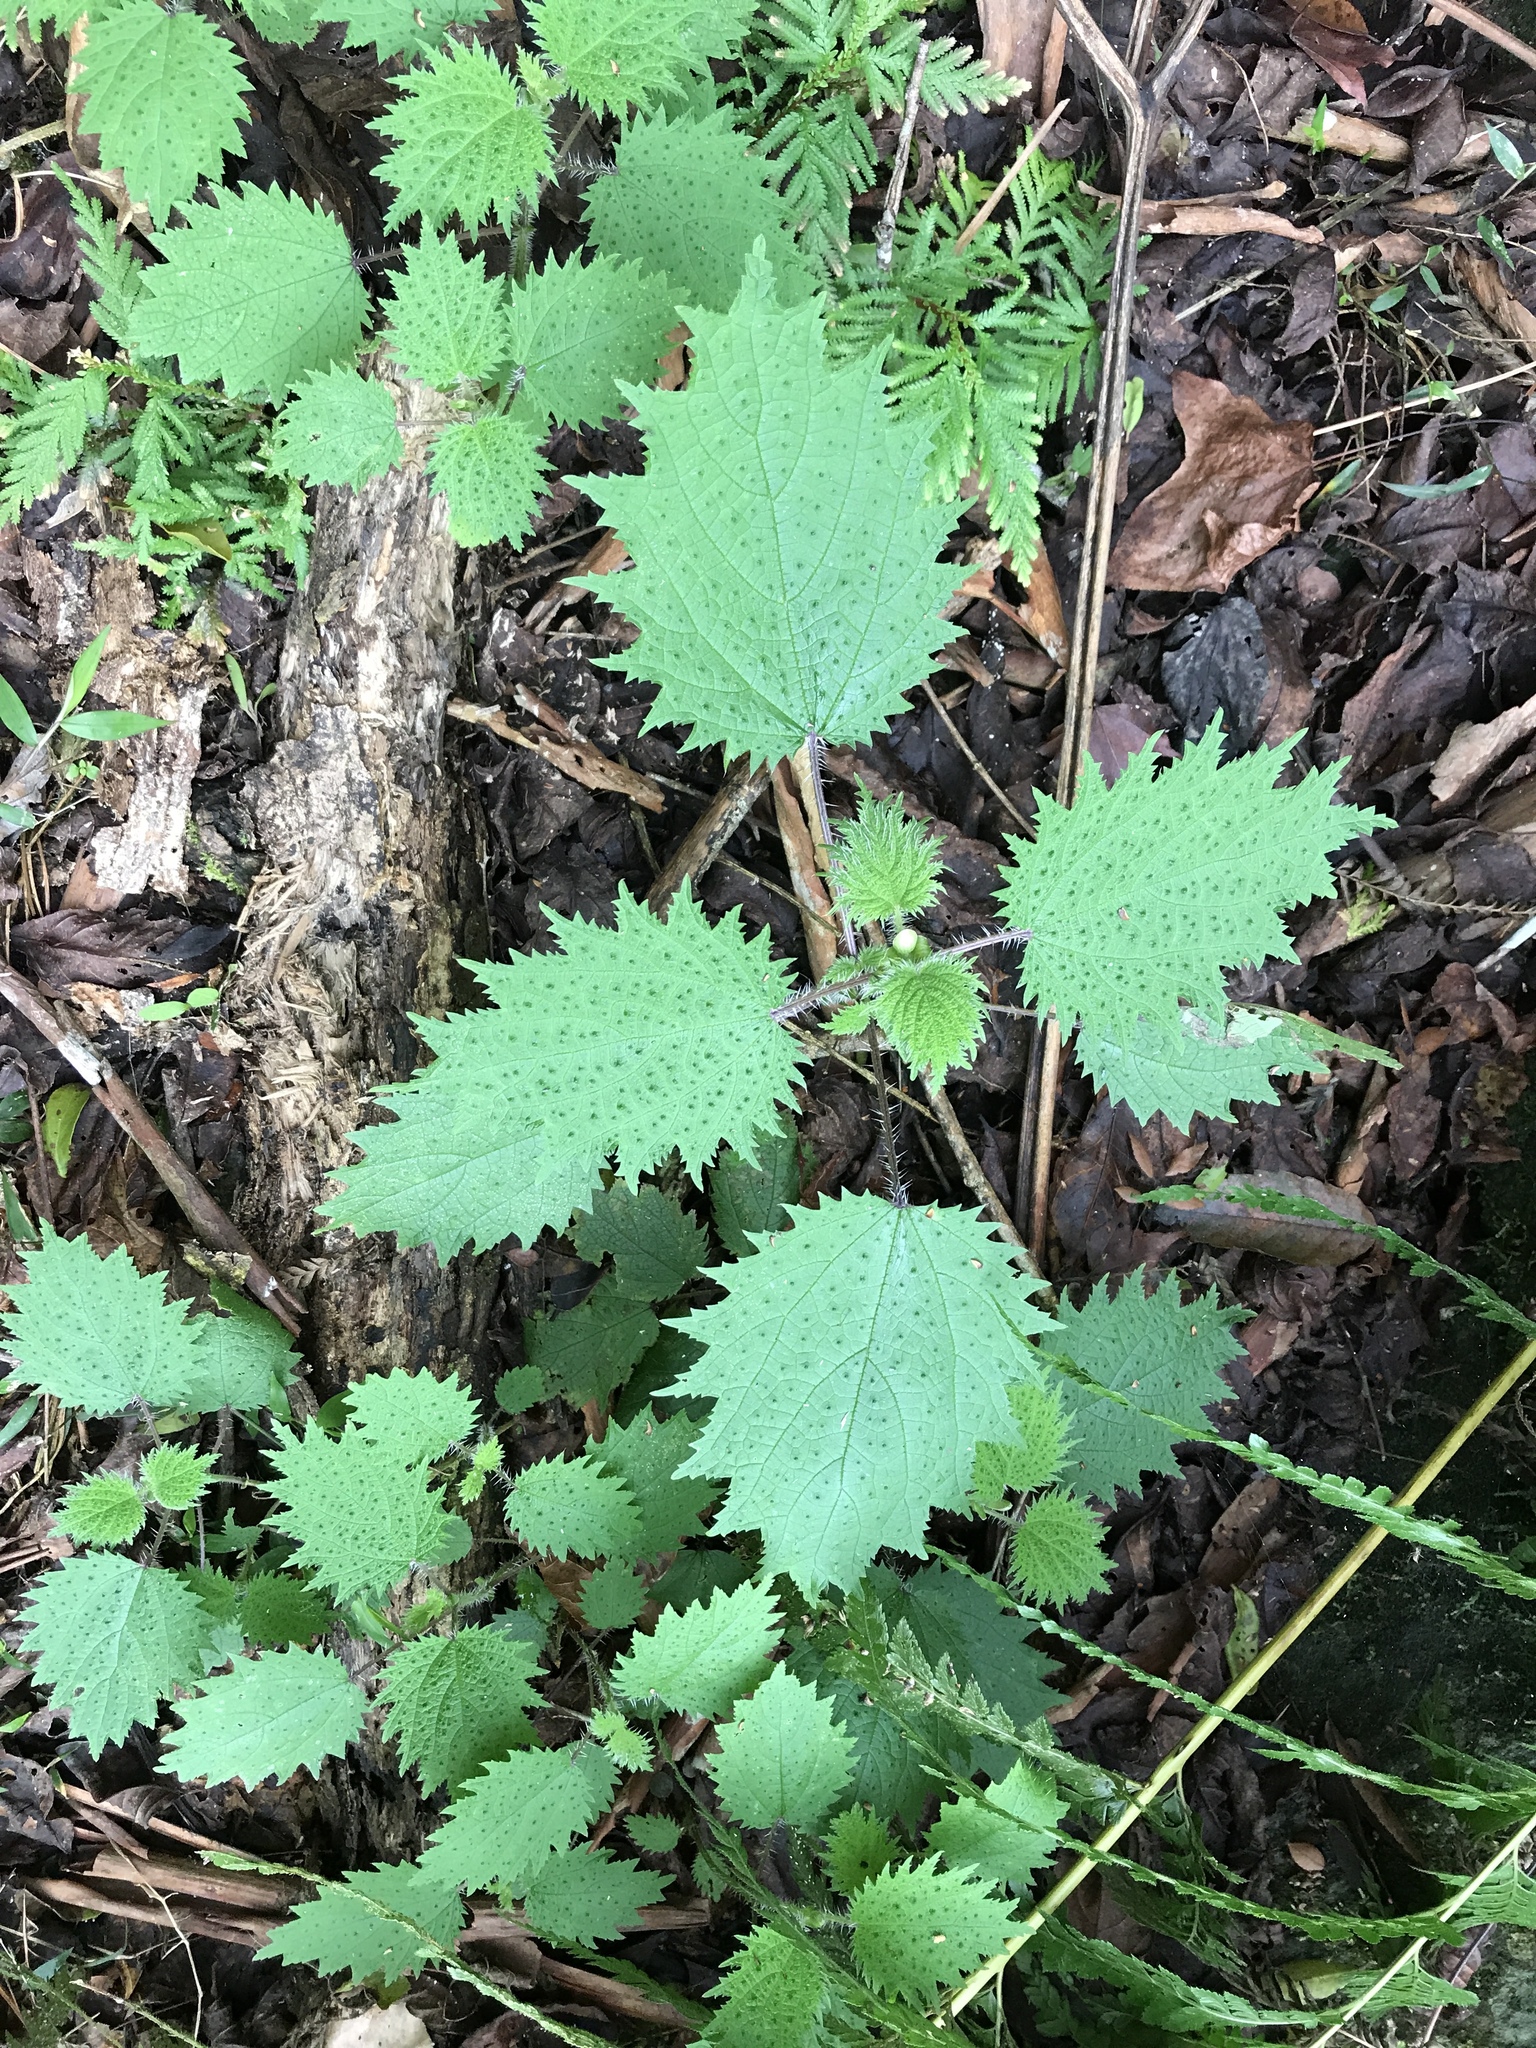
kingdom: Plantae
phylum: Tracheophyta
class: Magnoliopsida
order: Rosales
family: Urticaceae
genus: Urtica
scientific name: Urtica thunbergiana
